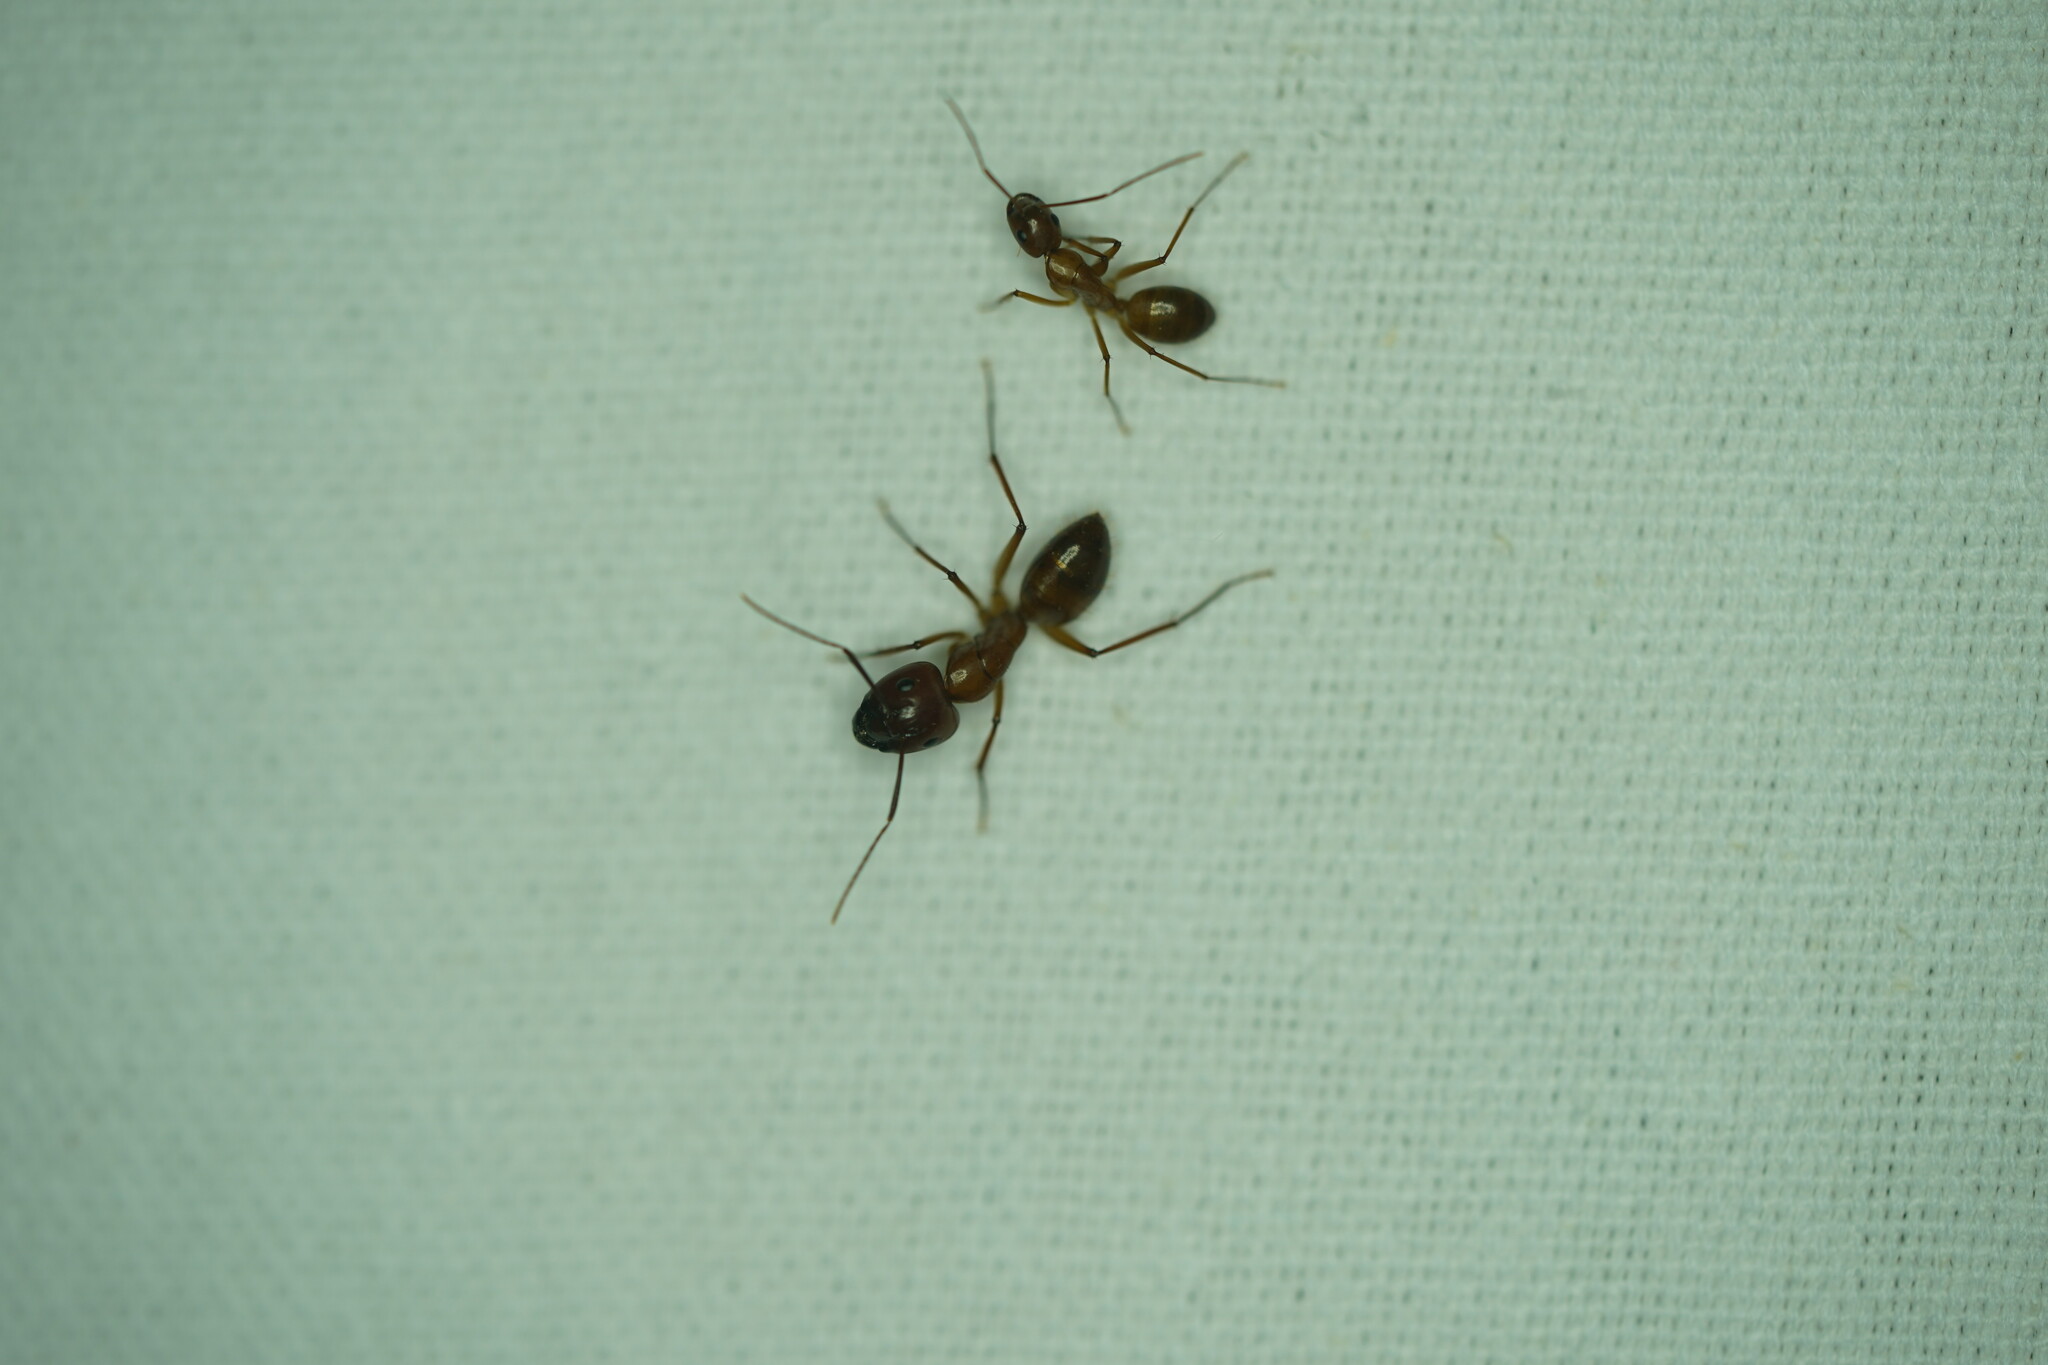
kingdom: Animalia
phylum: Arthropoda
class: Insecta
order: Hymenoptera
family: Formicidae
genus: Camponotus
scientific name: Camponotus castaneus
